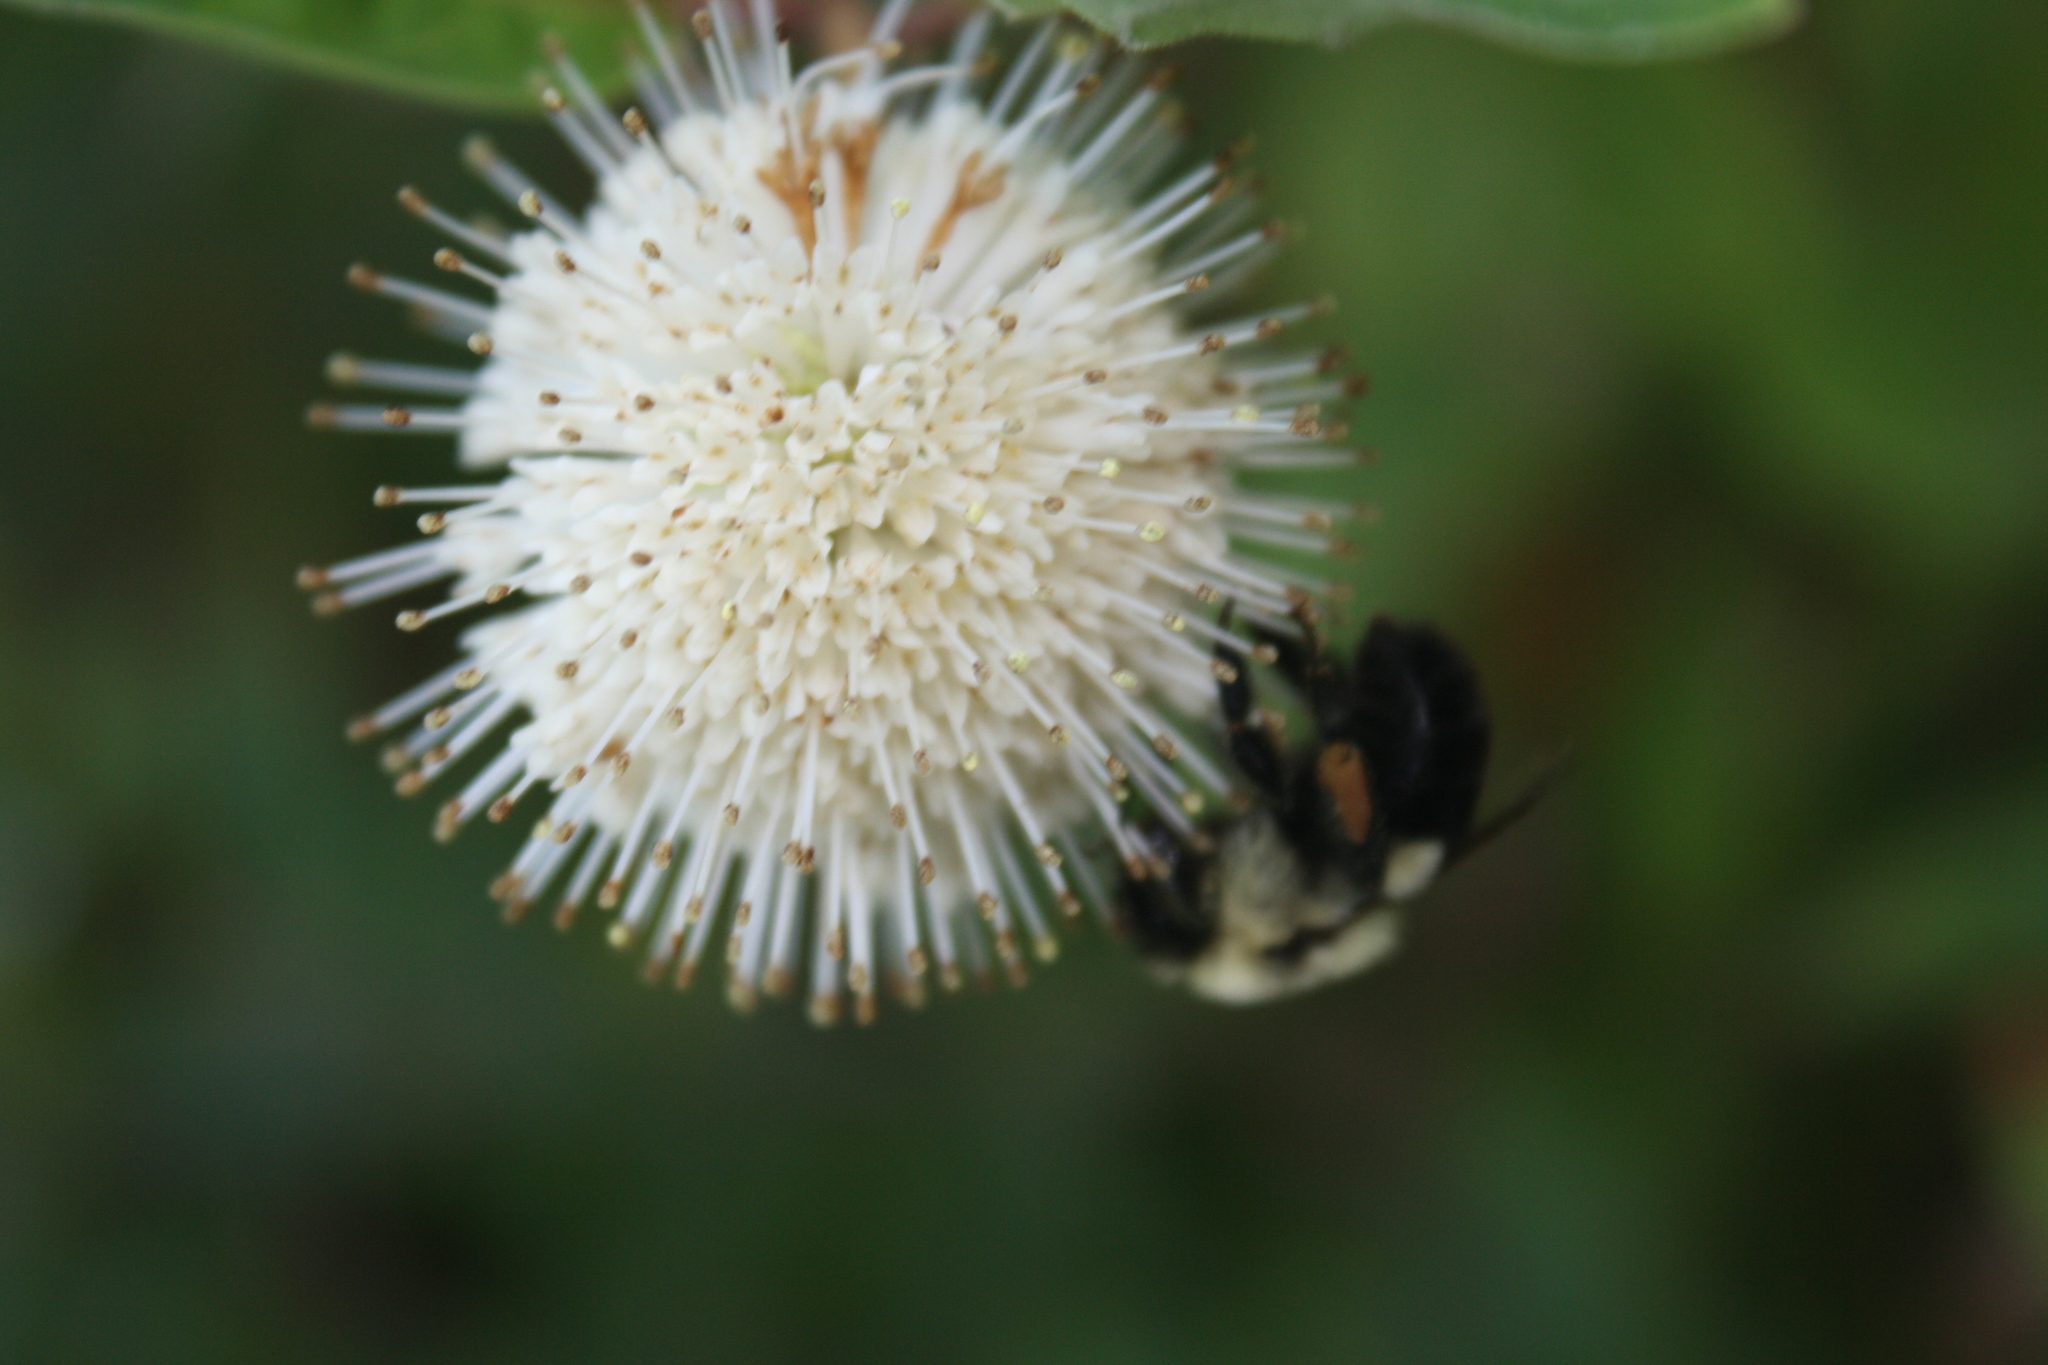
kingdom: Plantae
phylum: Tracheophyta
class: Magnoliopsida
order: Gentianales
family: Rubiaceae
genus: Cephalanthus
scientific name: Cephalanthus occidentalis
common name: Button-willow
